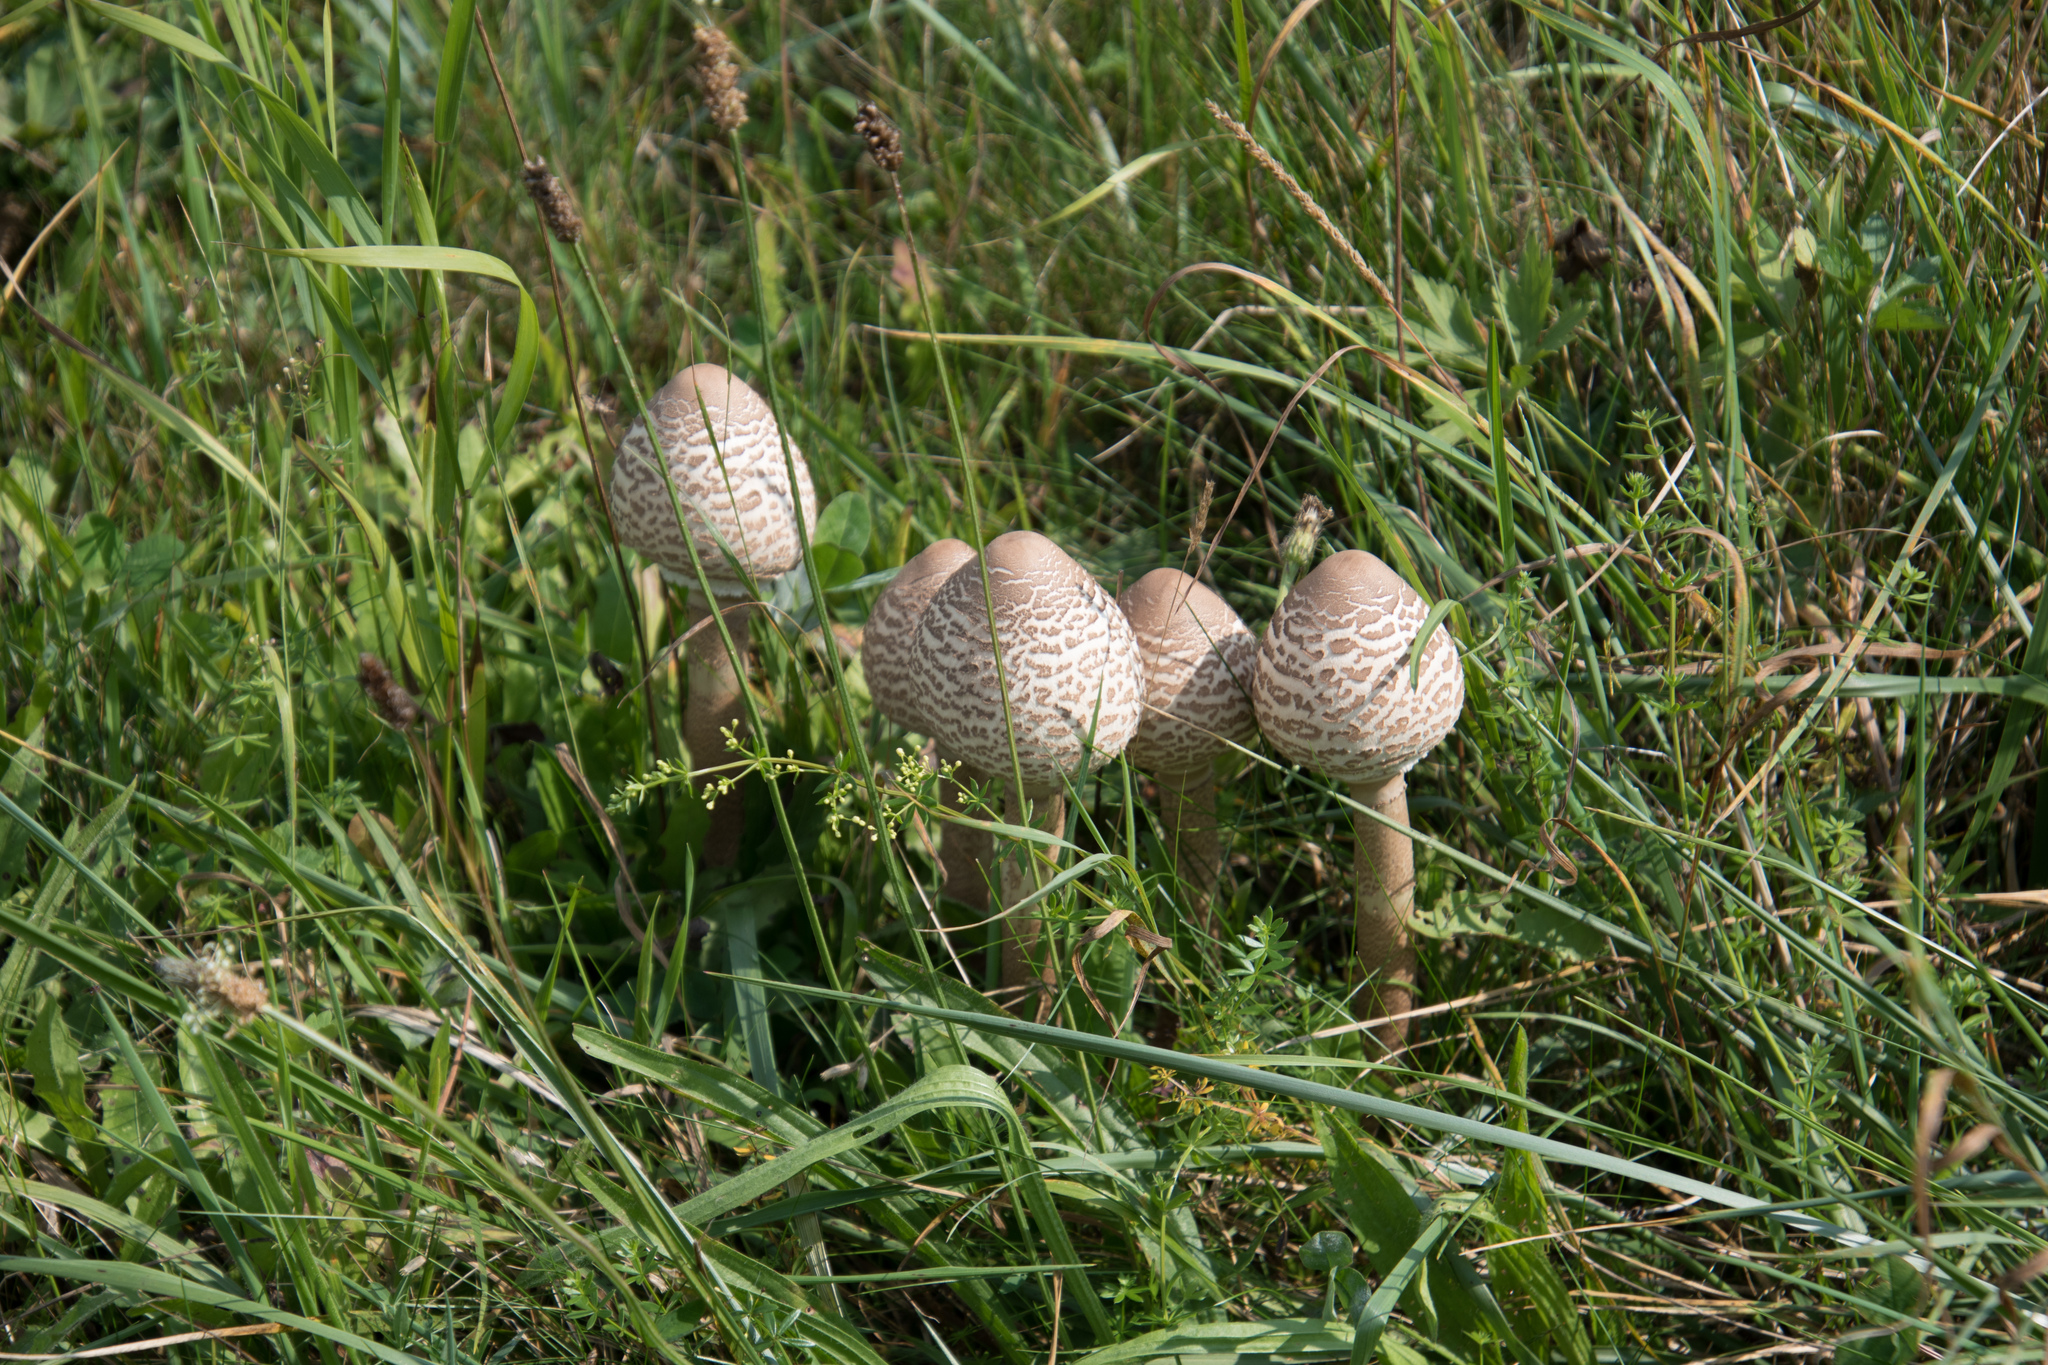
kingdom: Fungi
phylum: Basidiomycota
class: Agaricomycetes
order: Agaricales
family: Agaricaceae
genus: Macrolepiota
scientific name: Macrolepiota procera
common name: Parasol
